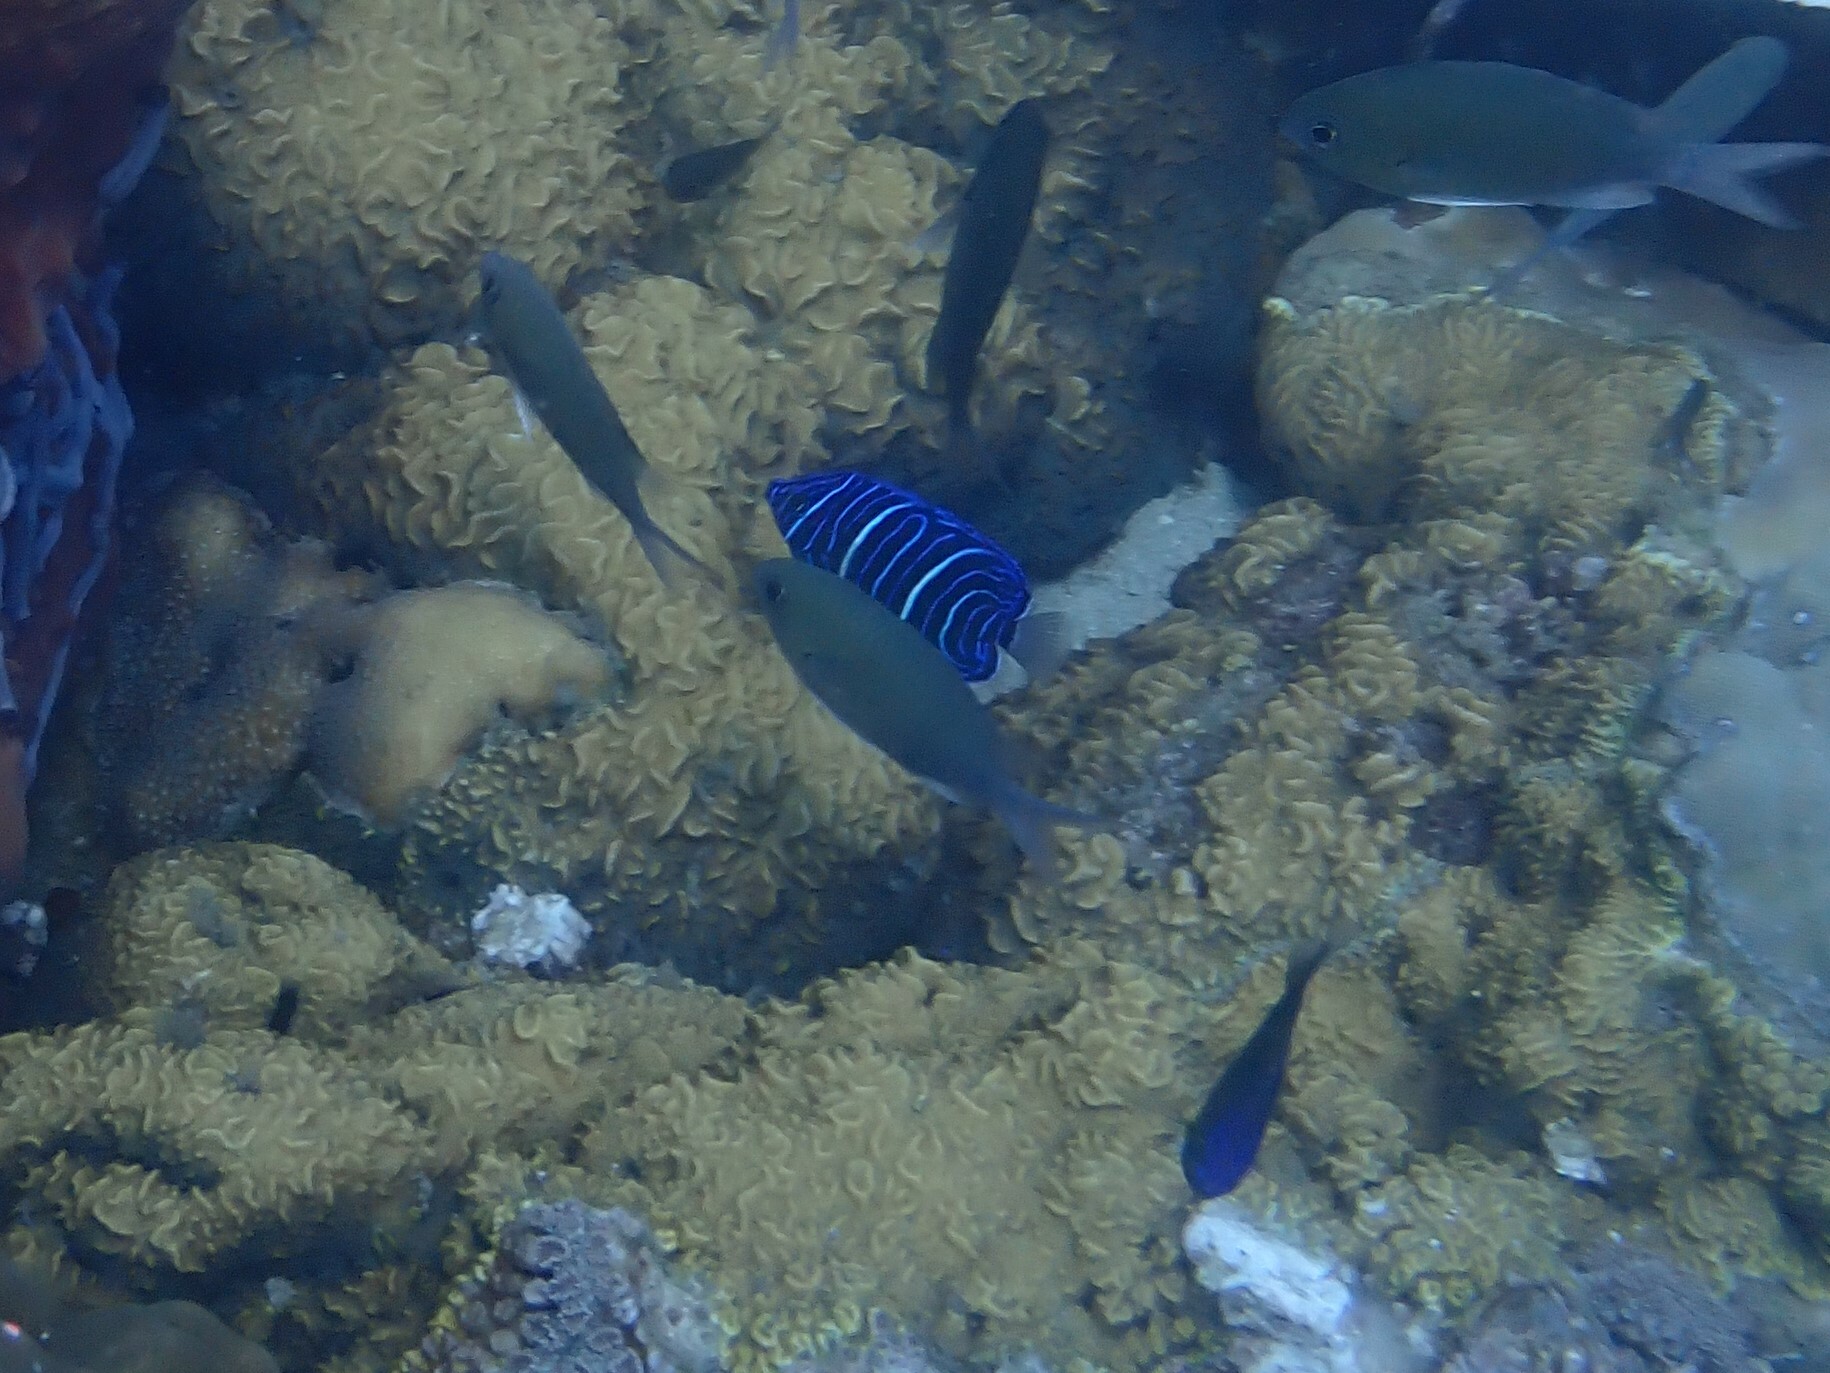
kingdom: Animalia
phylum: Chordata
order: Perciformes
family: Pomacanthidae
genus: Pomacanthus
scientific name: Pomacanthus annularis
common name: Bluering angelfish
